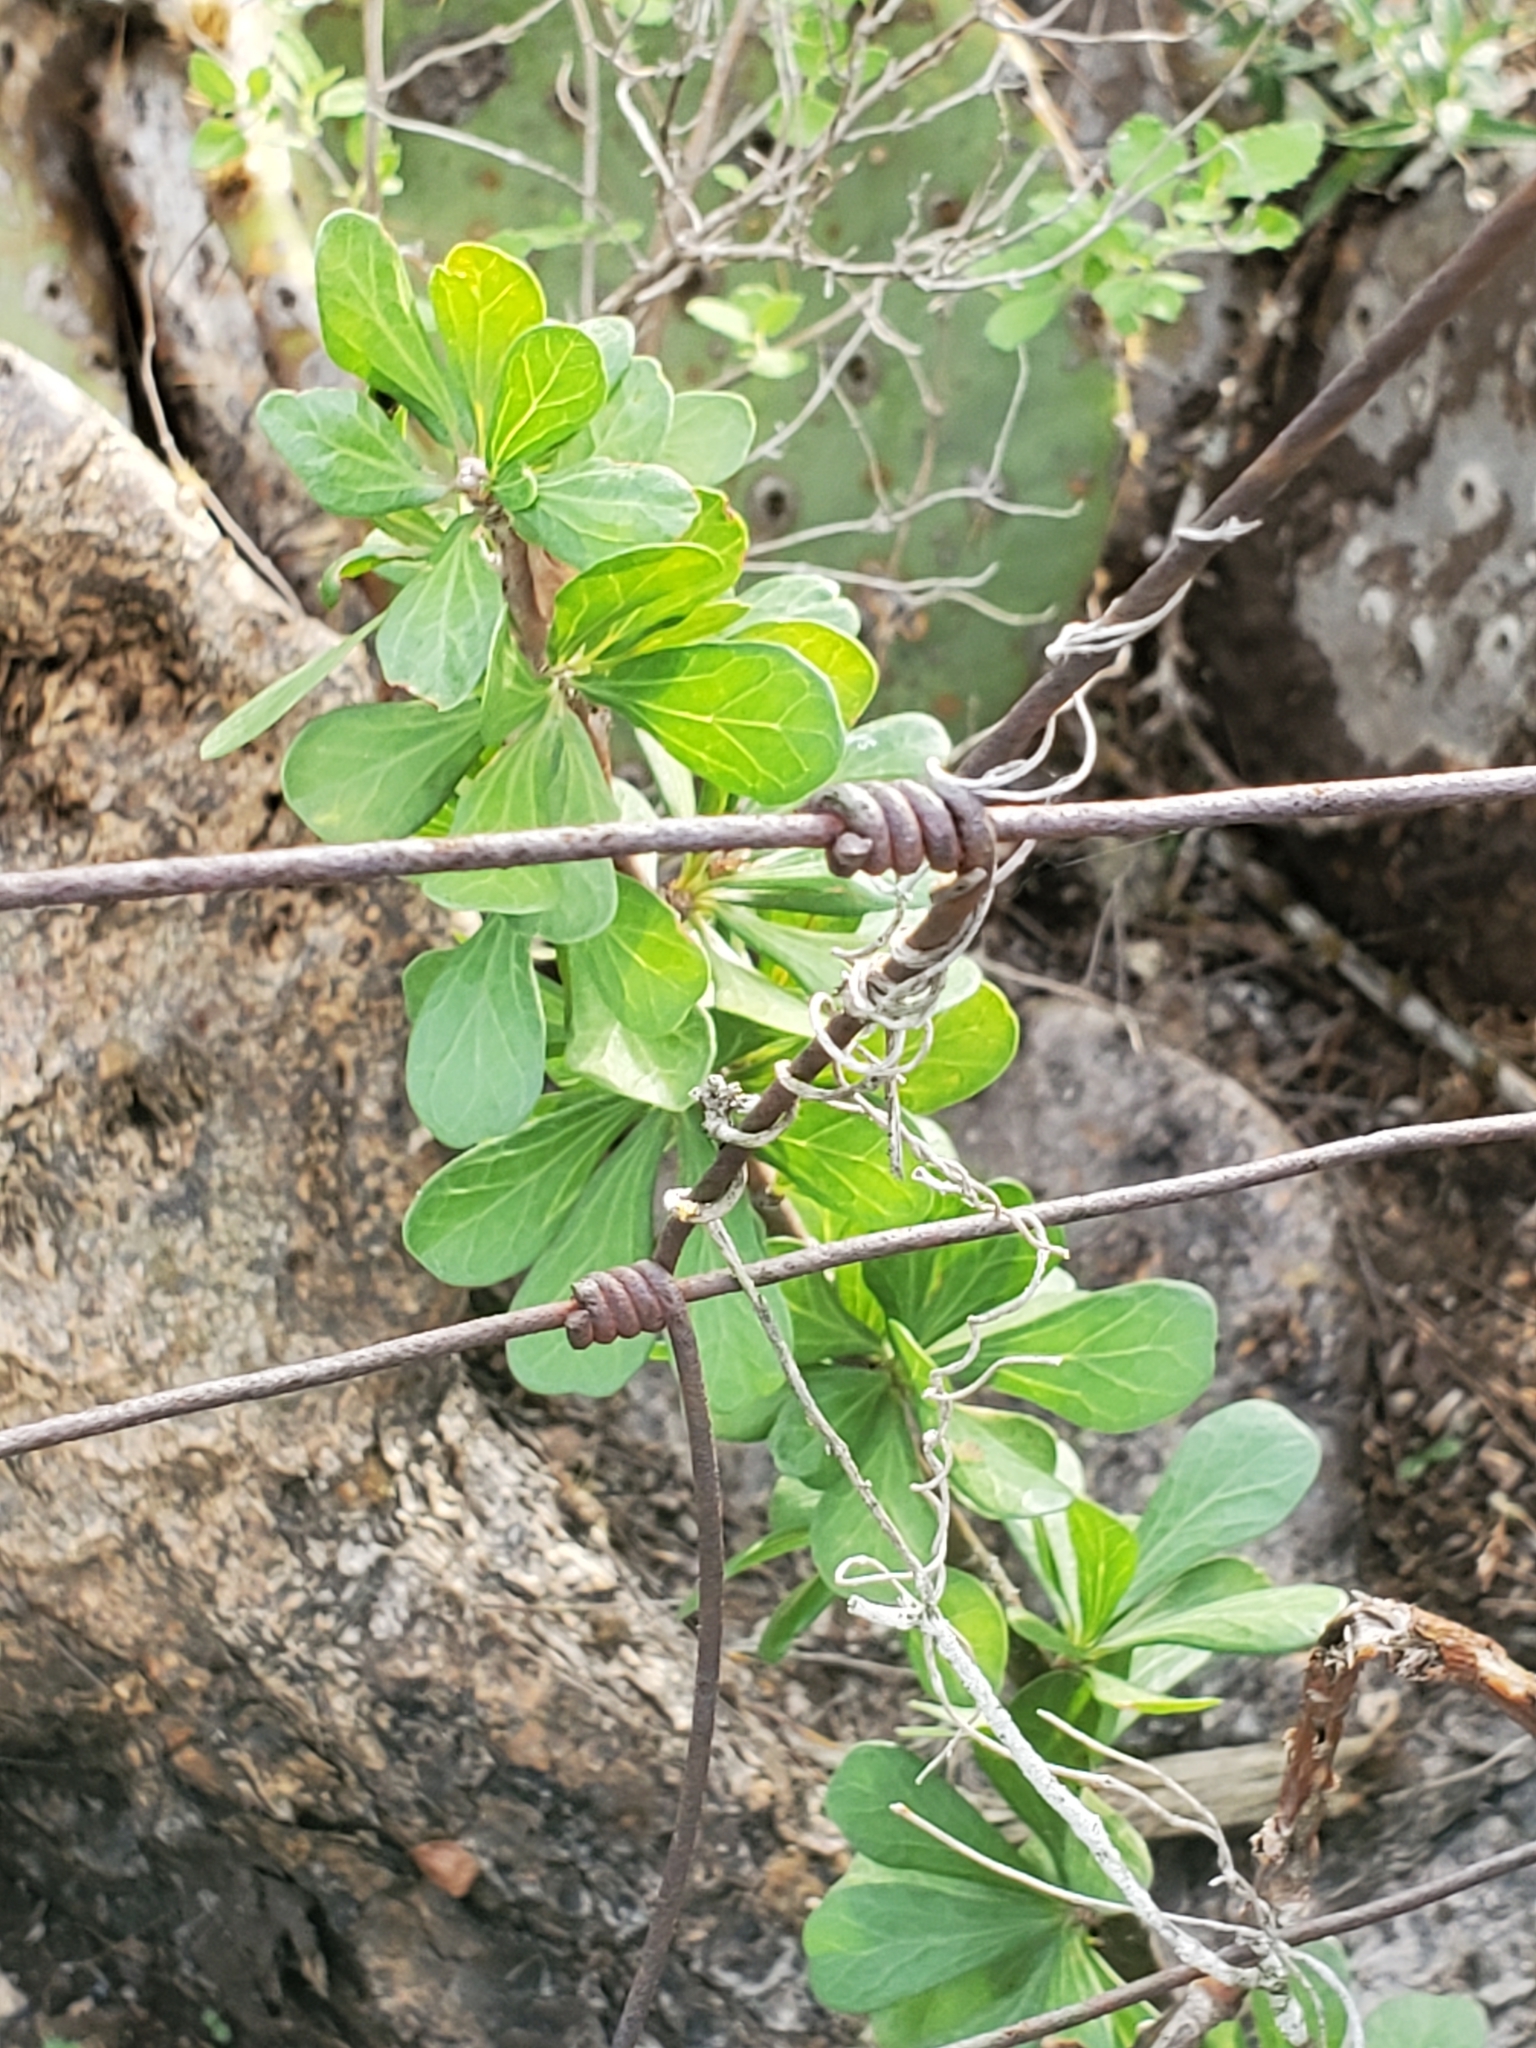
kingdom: Plantae
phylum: Tracheophyta
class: Magnoliopsida
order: Malpighiales
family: Euphorbiaceae
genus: Jatropha
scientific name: Jatropha dioica
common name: Leatherstem
